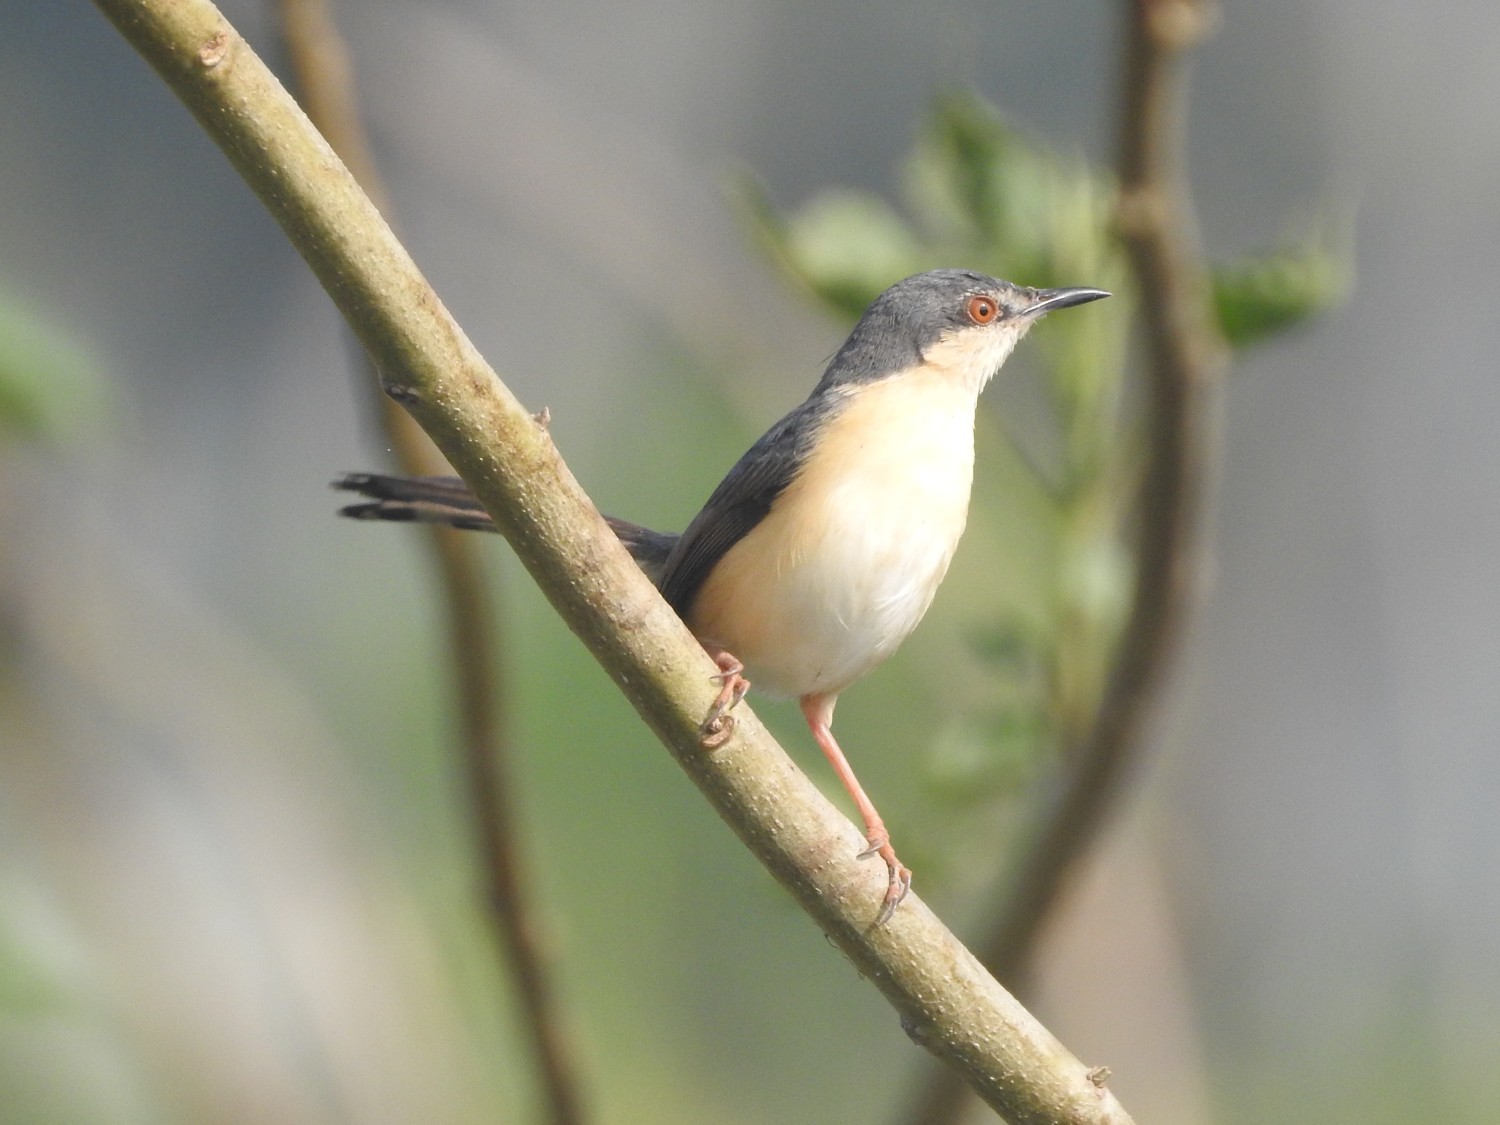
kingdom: Animalia
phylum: Chordata
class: Aves
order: Passeriformes
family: Cisticolidae
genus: Prinia
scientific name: Prinia socialis
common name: Ashy prinia
